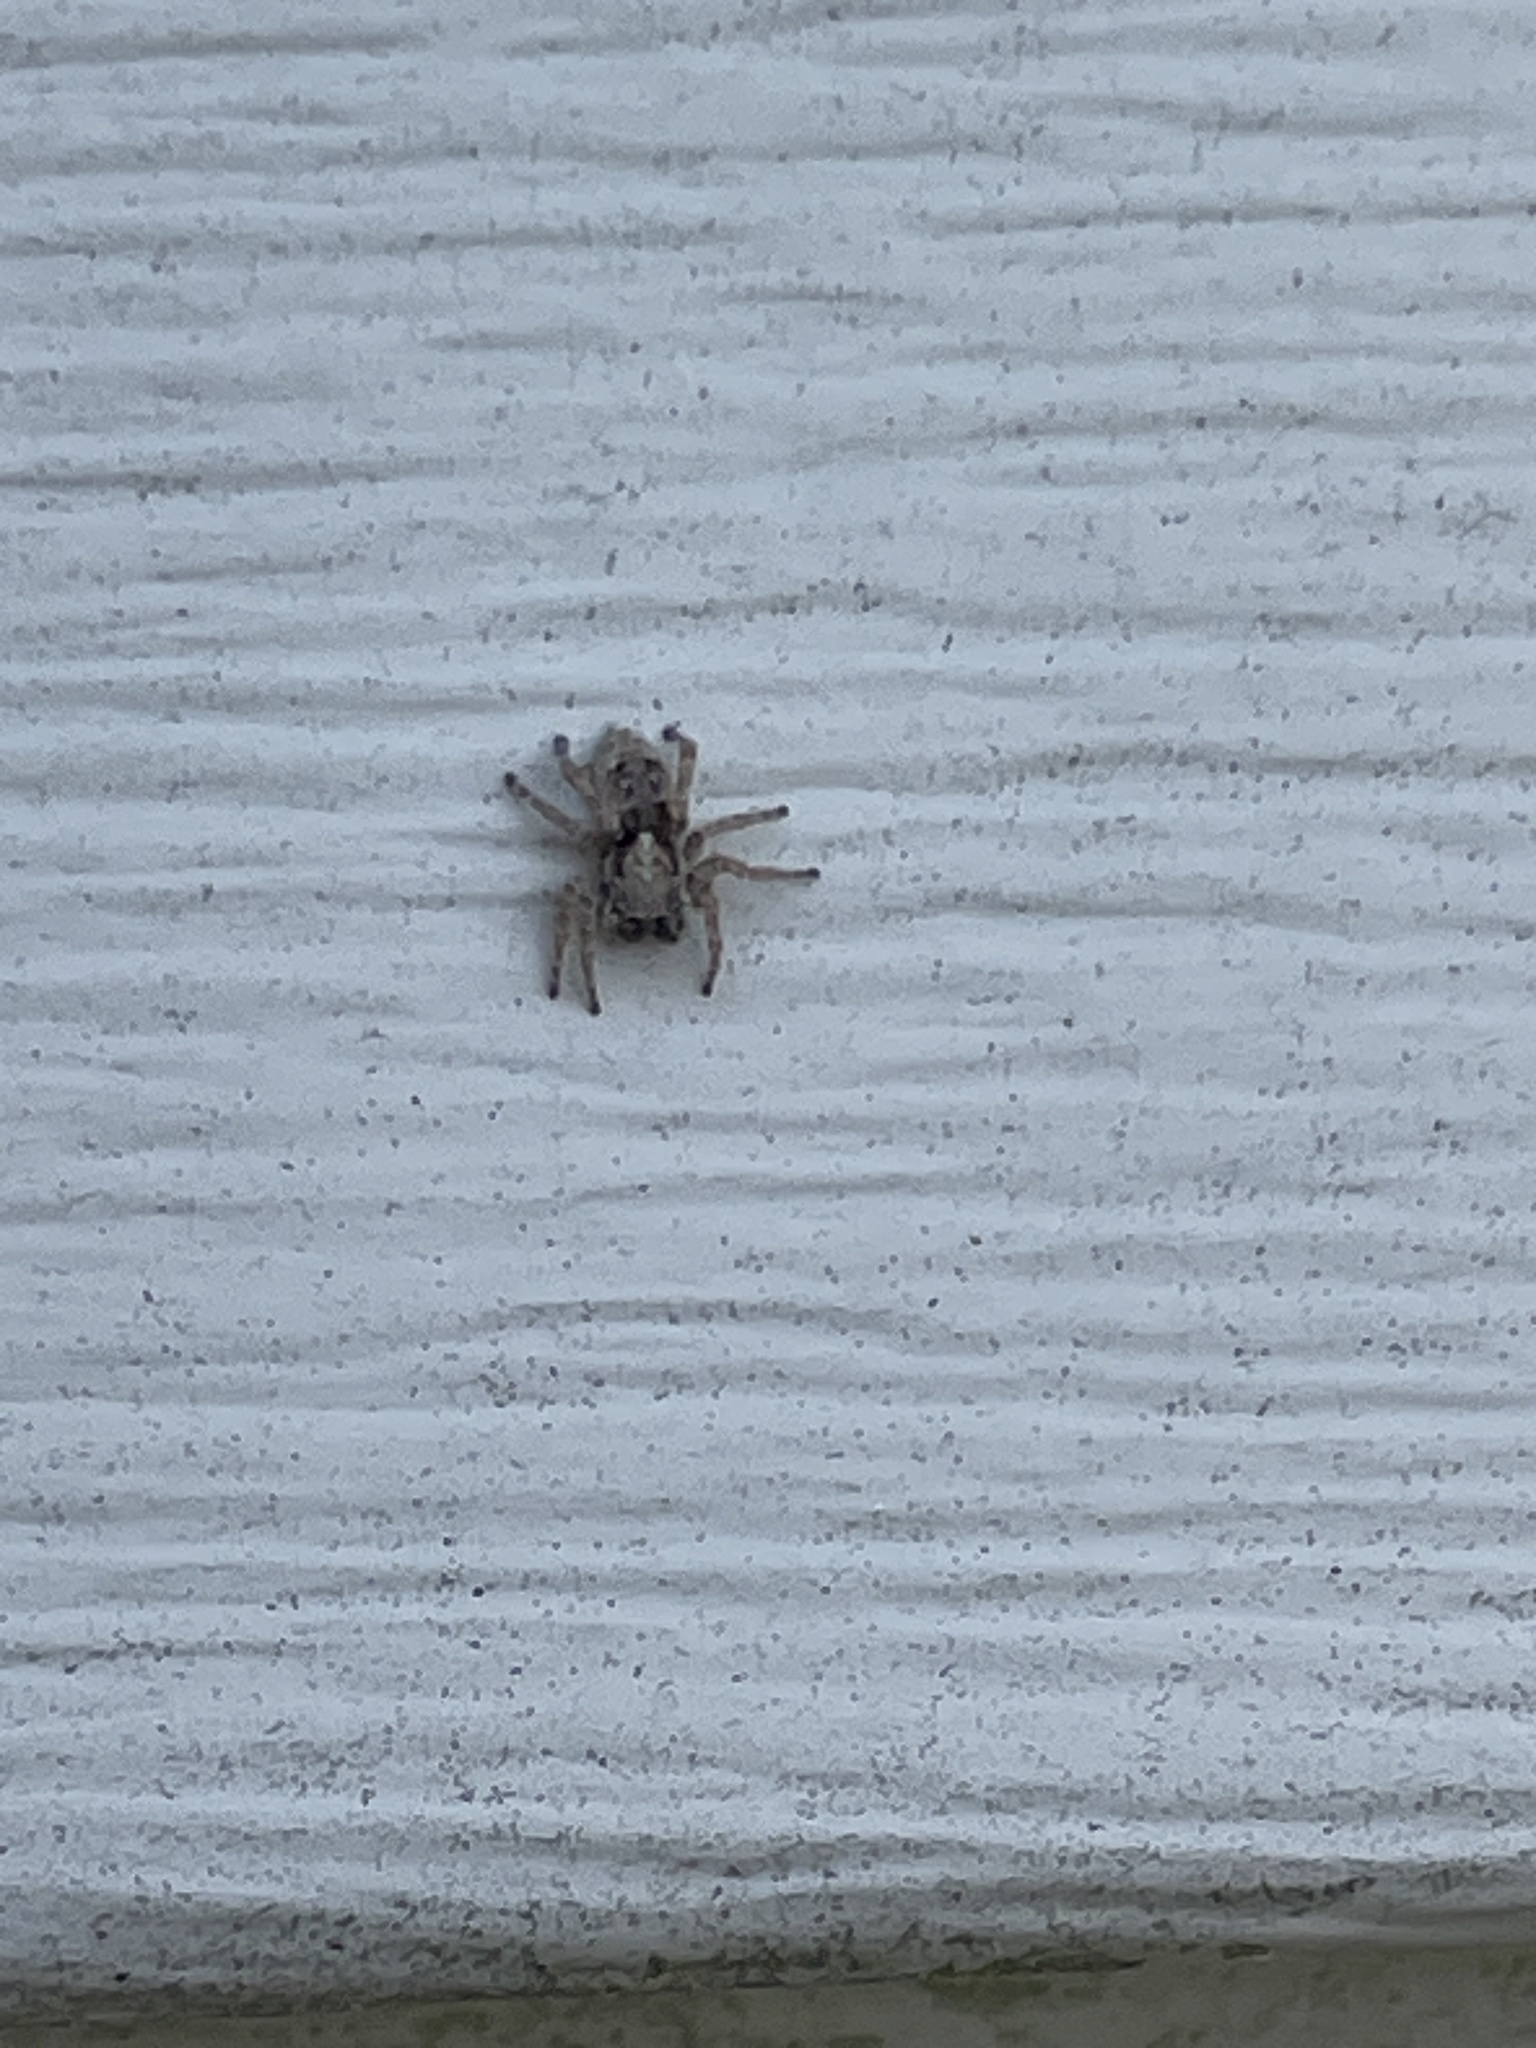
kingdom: Animalia
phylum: Arthropoda
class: Arachnida
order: Araneae
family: Salticidae
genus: Attulus
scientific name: Attulus fasciger
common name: Asiatic wall jumping spider
